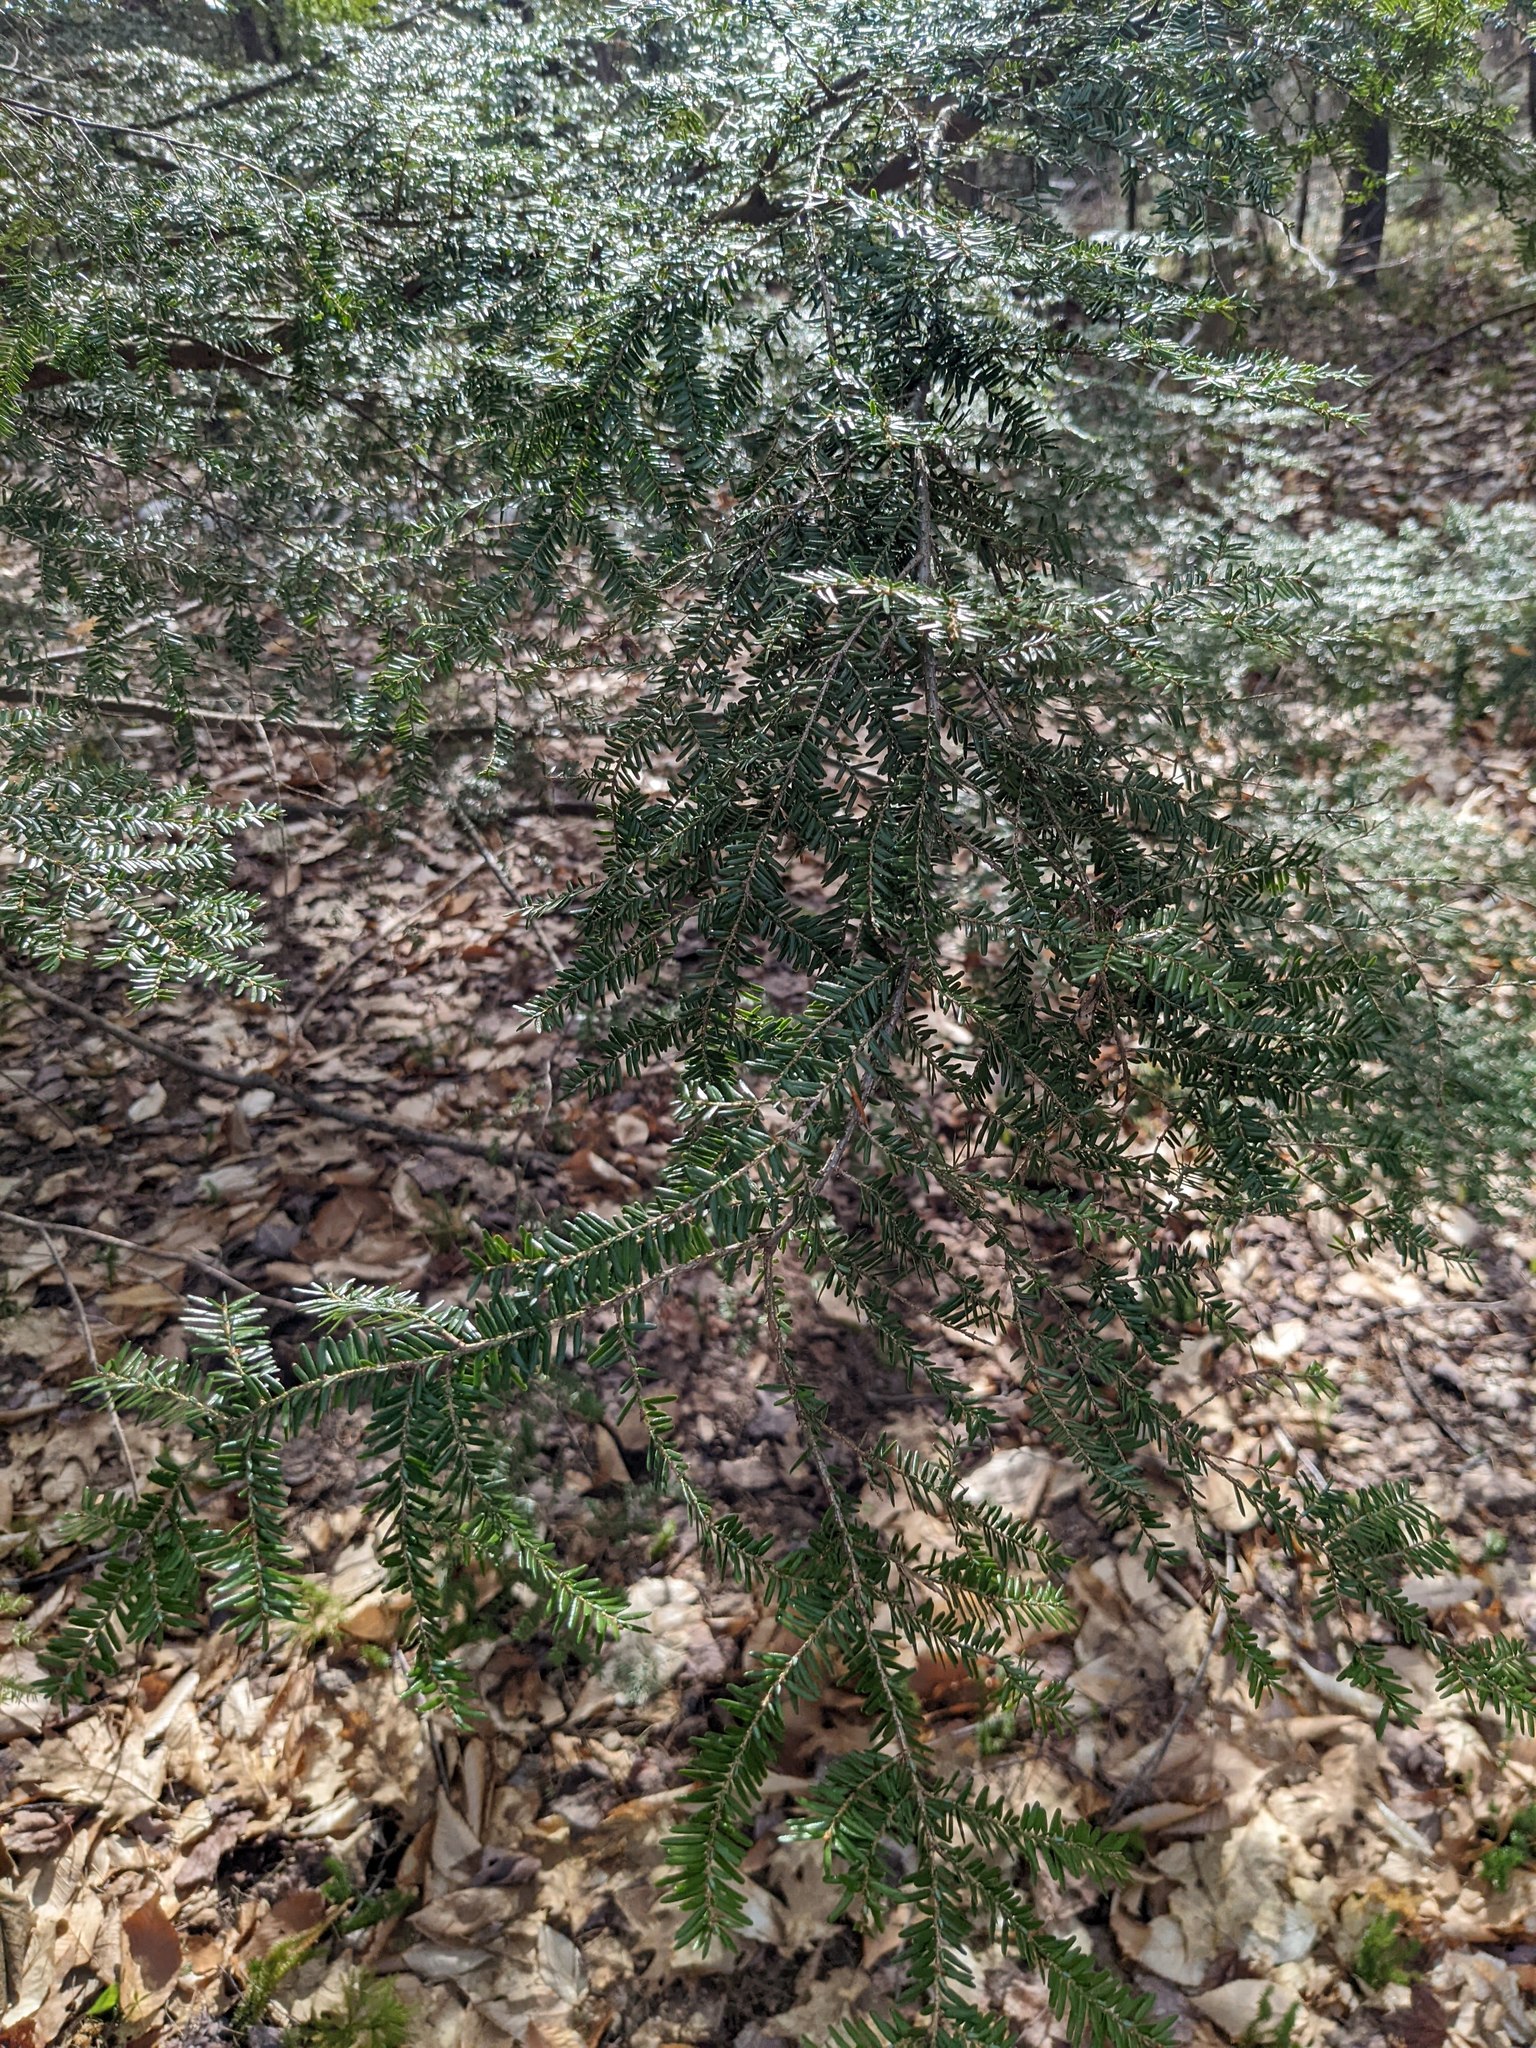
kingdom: Plantae
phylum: Tracheophyta
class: Pinopsida
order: Pinales
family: Pinaceae
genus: Tsuga
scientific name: Tsuga canadensis
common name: Eastern hemlock
